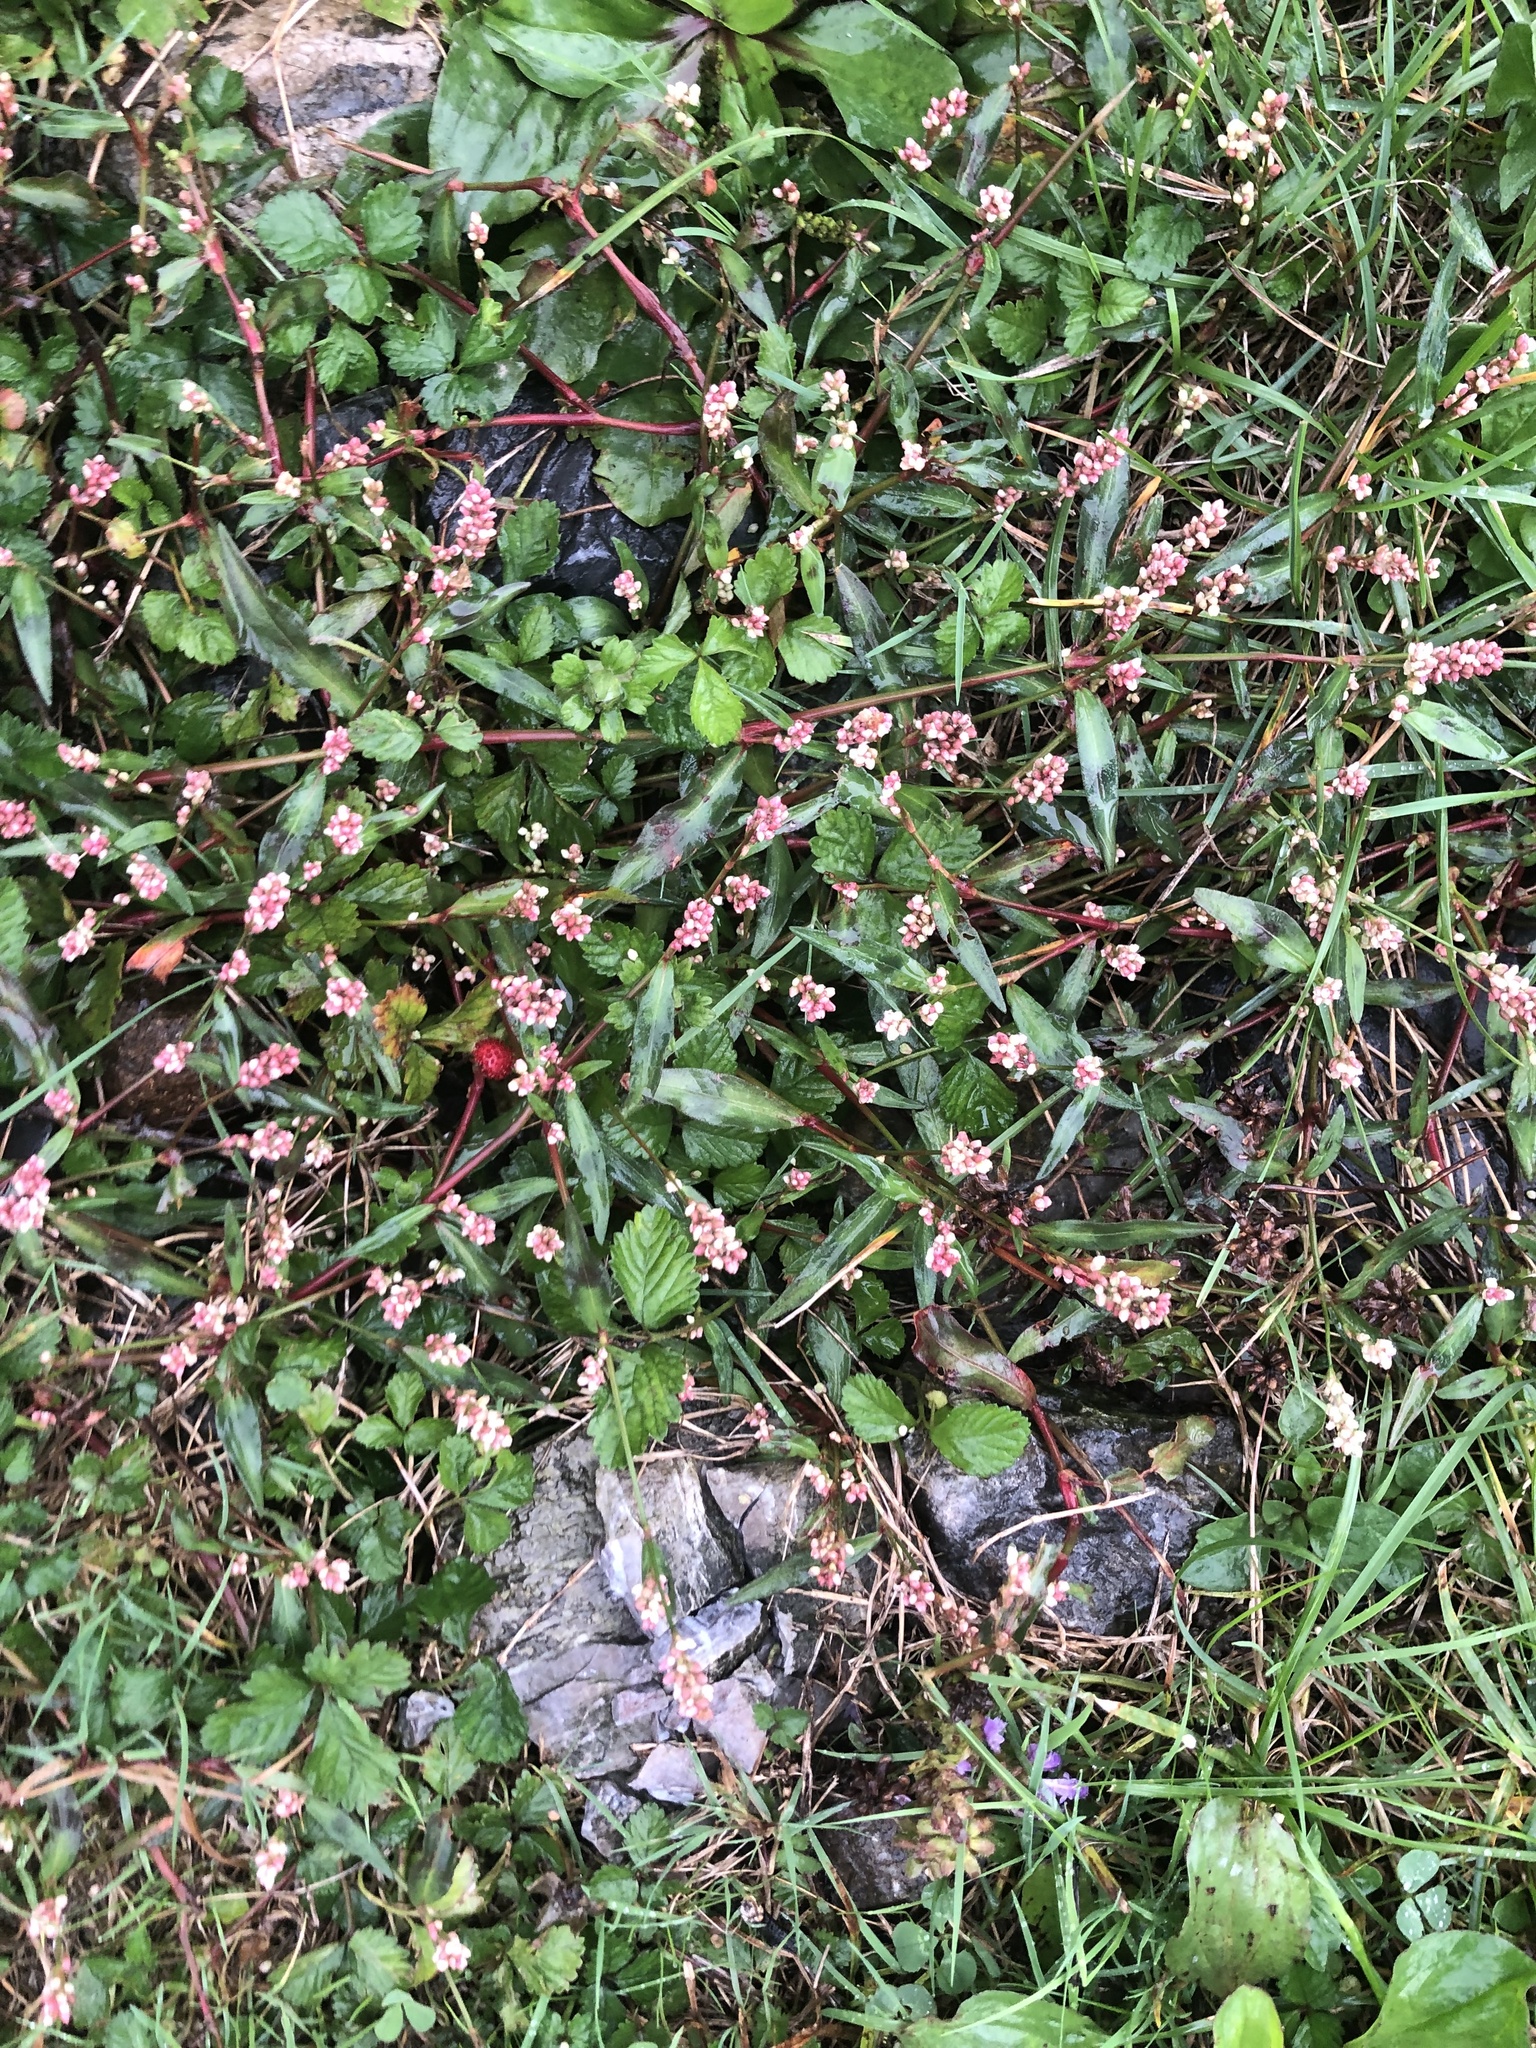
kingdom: Plantae
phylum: Tracheophyta
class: Magnoliopsida
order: Caryophyllales
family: Polygonaceae
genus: Persicaria
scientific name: Persicaria maculosa
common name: Redshank
